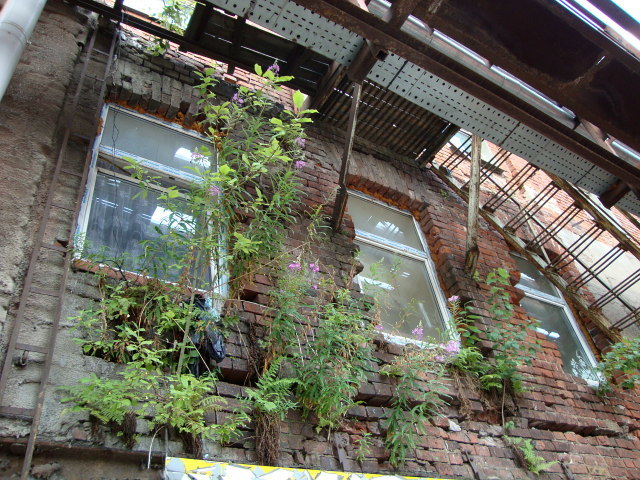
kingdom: Plantae
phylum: Tracheophyta
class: Magnoliopsida
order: Myrtales
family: Onagraceae
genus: Chamaenerion
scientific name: Chamaenerion angustifolium
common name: Fireweed
